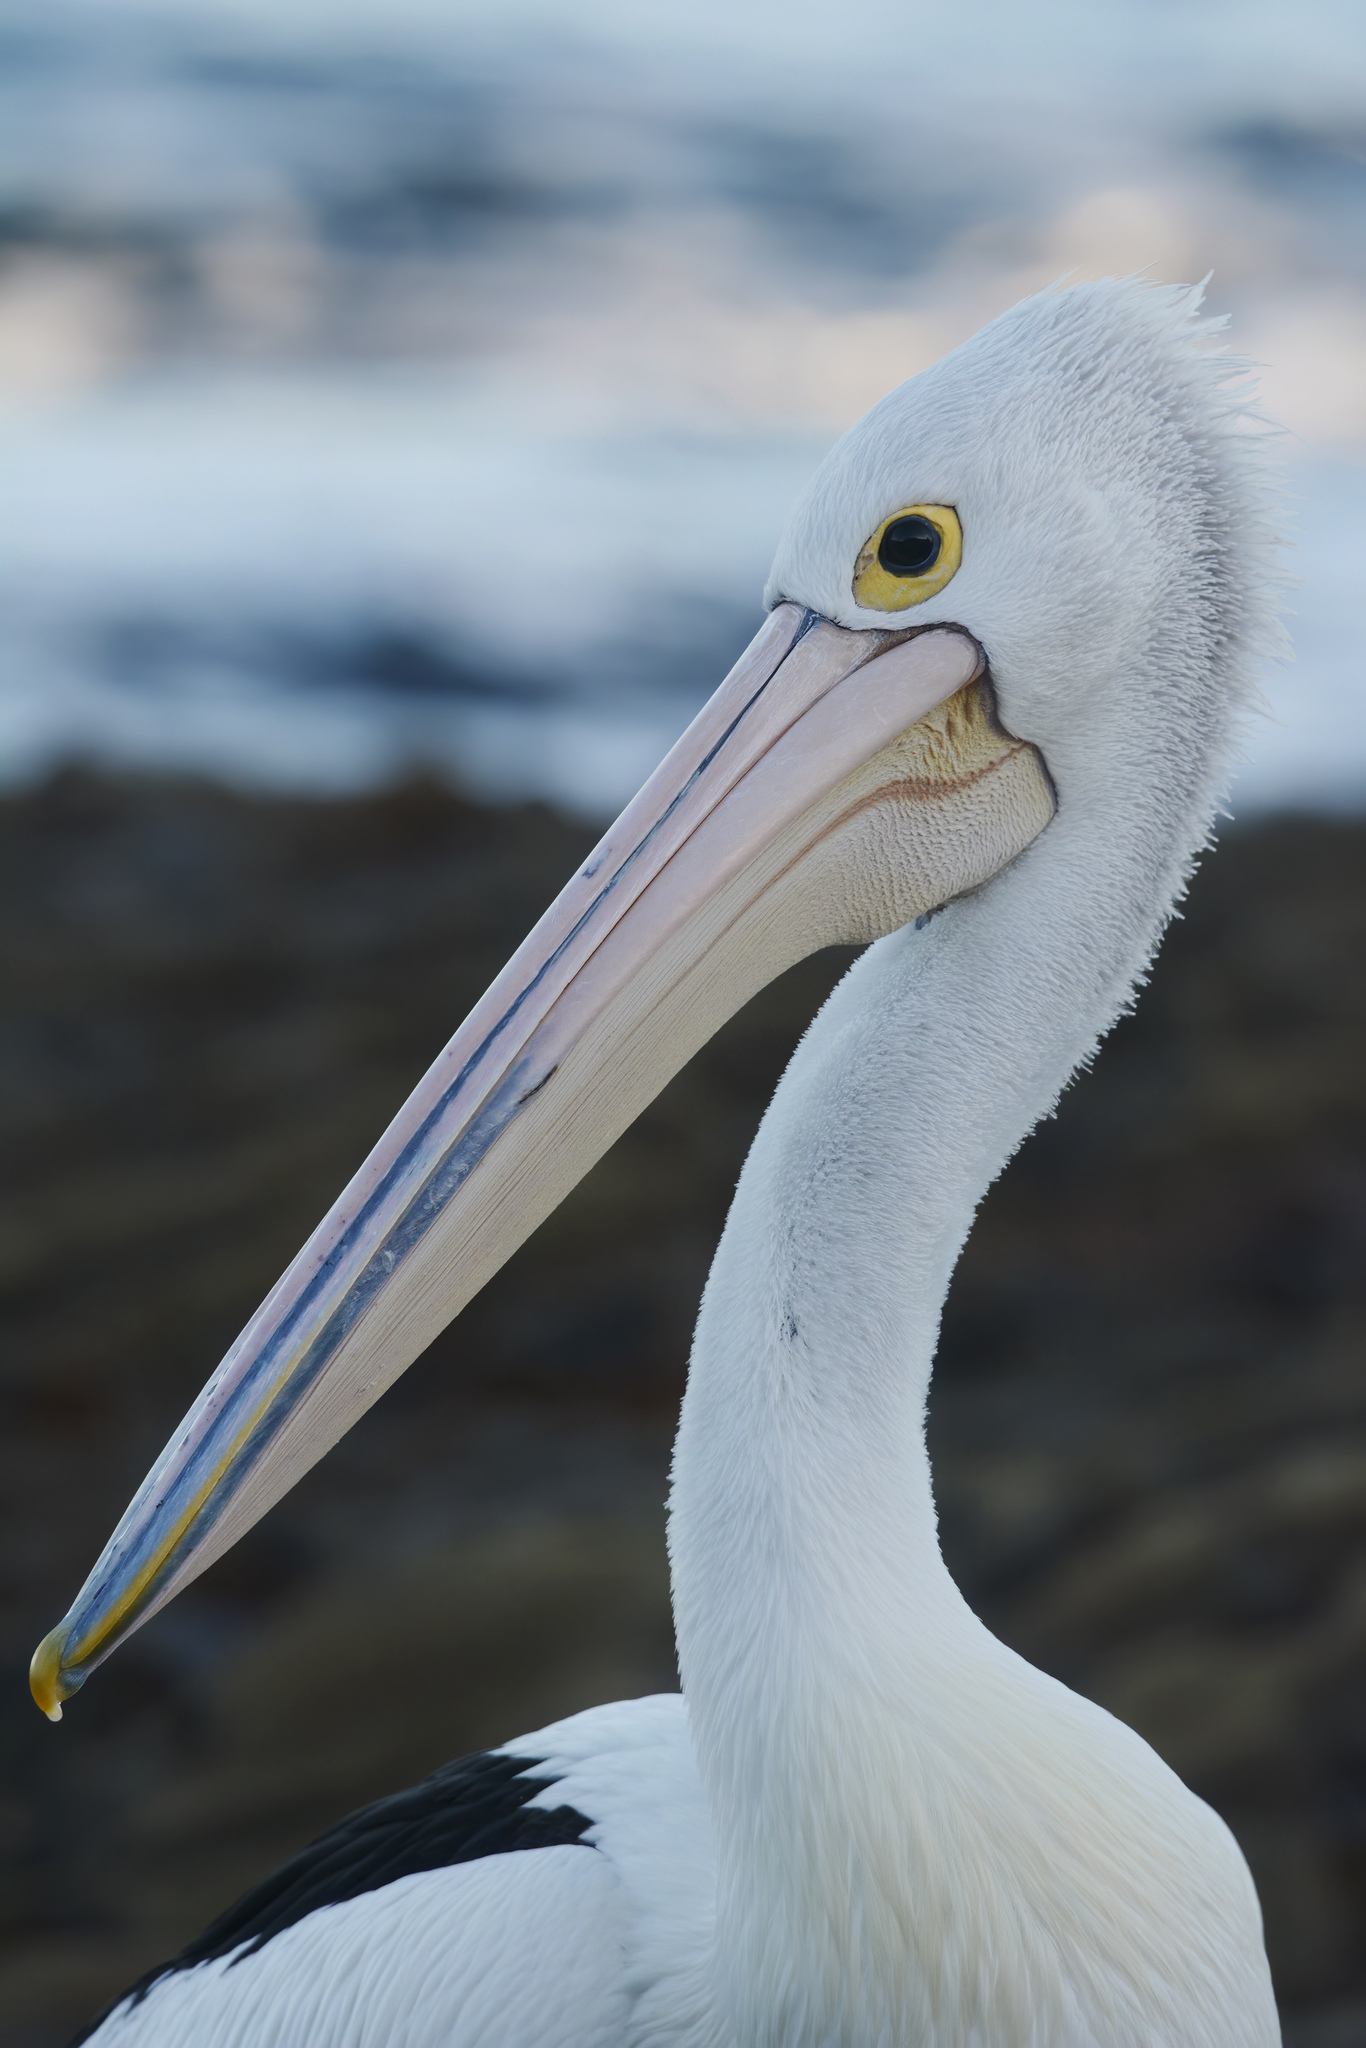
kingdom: Animalia
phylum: Chordata
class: Aves
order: Pelecaniformes
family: Pelecanidae
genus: Pelecanus
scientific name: Pelecanus conspicillatus
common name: Australian pelican
